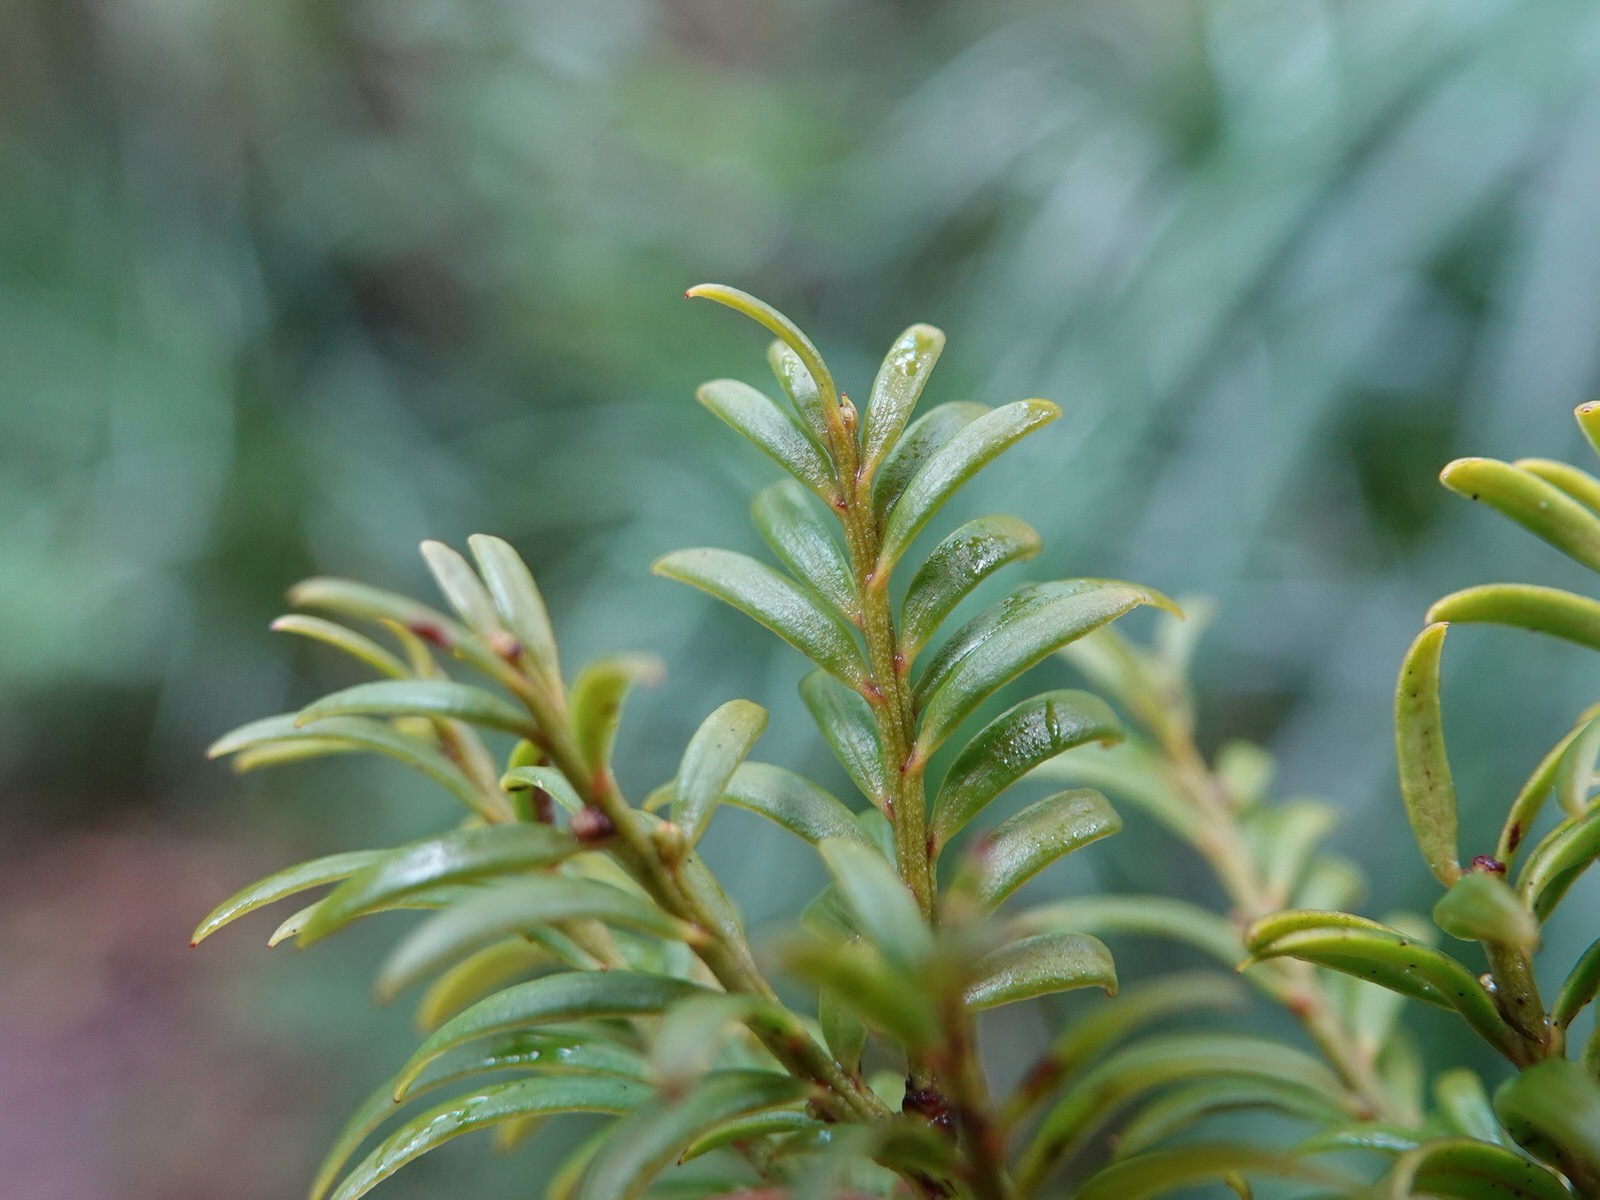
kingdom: Plantae
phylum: Tracheophyta
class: Pinopsida
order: Pinales
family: Podocarpaceae
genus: Prumnopitys
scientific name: Prumnopitys ferruginea
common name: Brown pine
